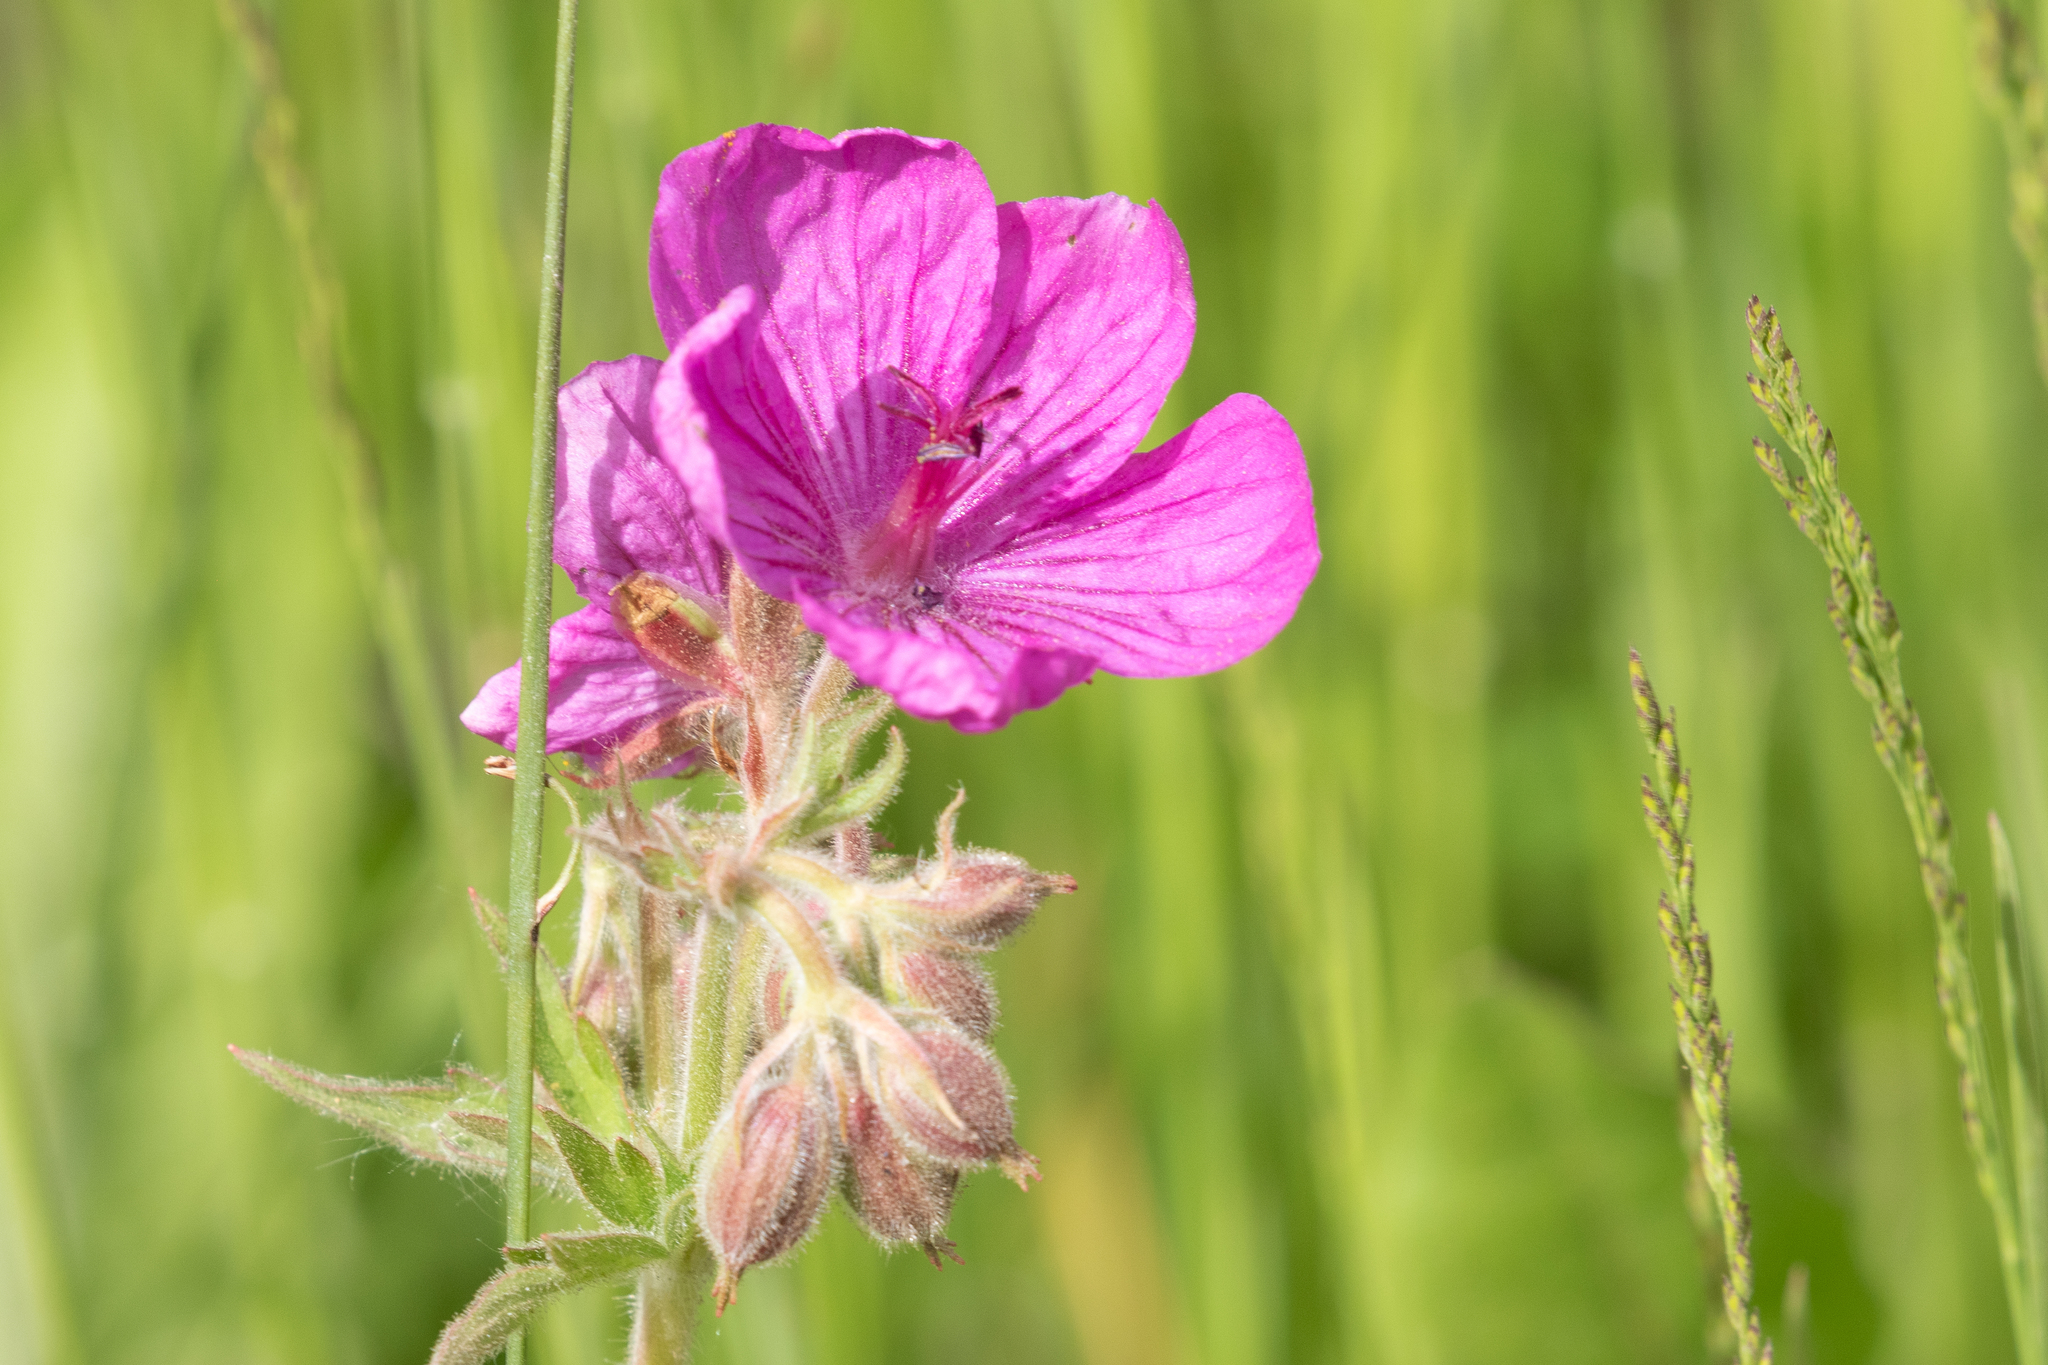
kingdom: Plantae
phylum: Tracheophyta
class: Magnoliopsida
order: Geraniales
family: Geraniaceae
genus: Geranium
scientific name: Geranium viscosissimum
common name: Purple geranium
